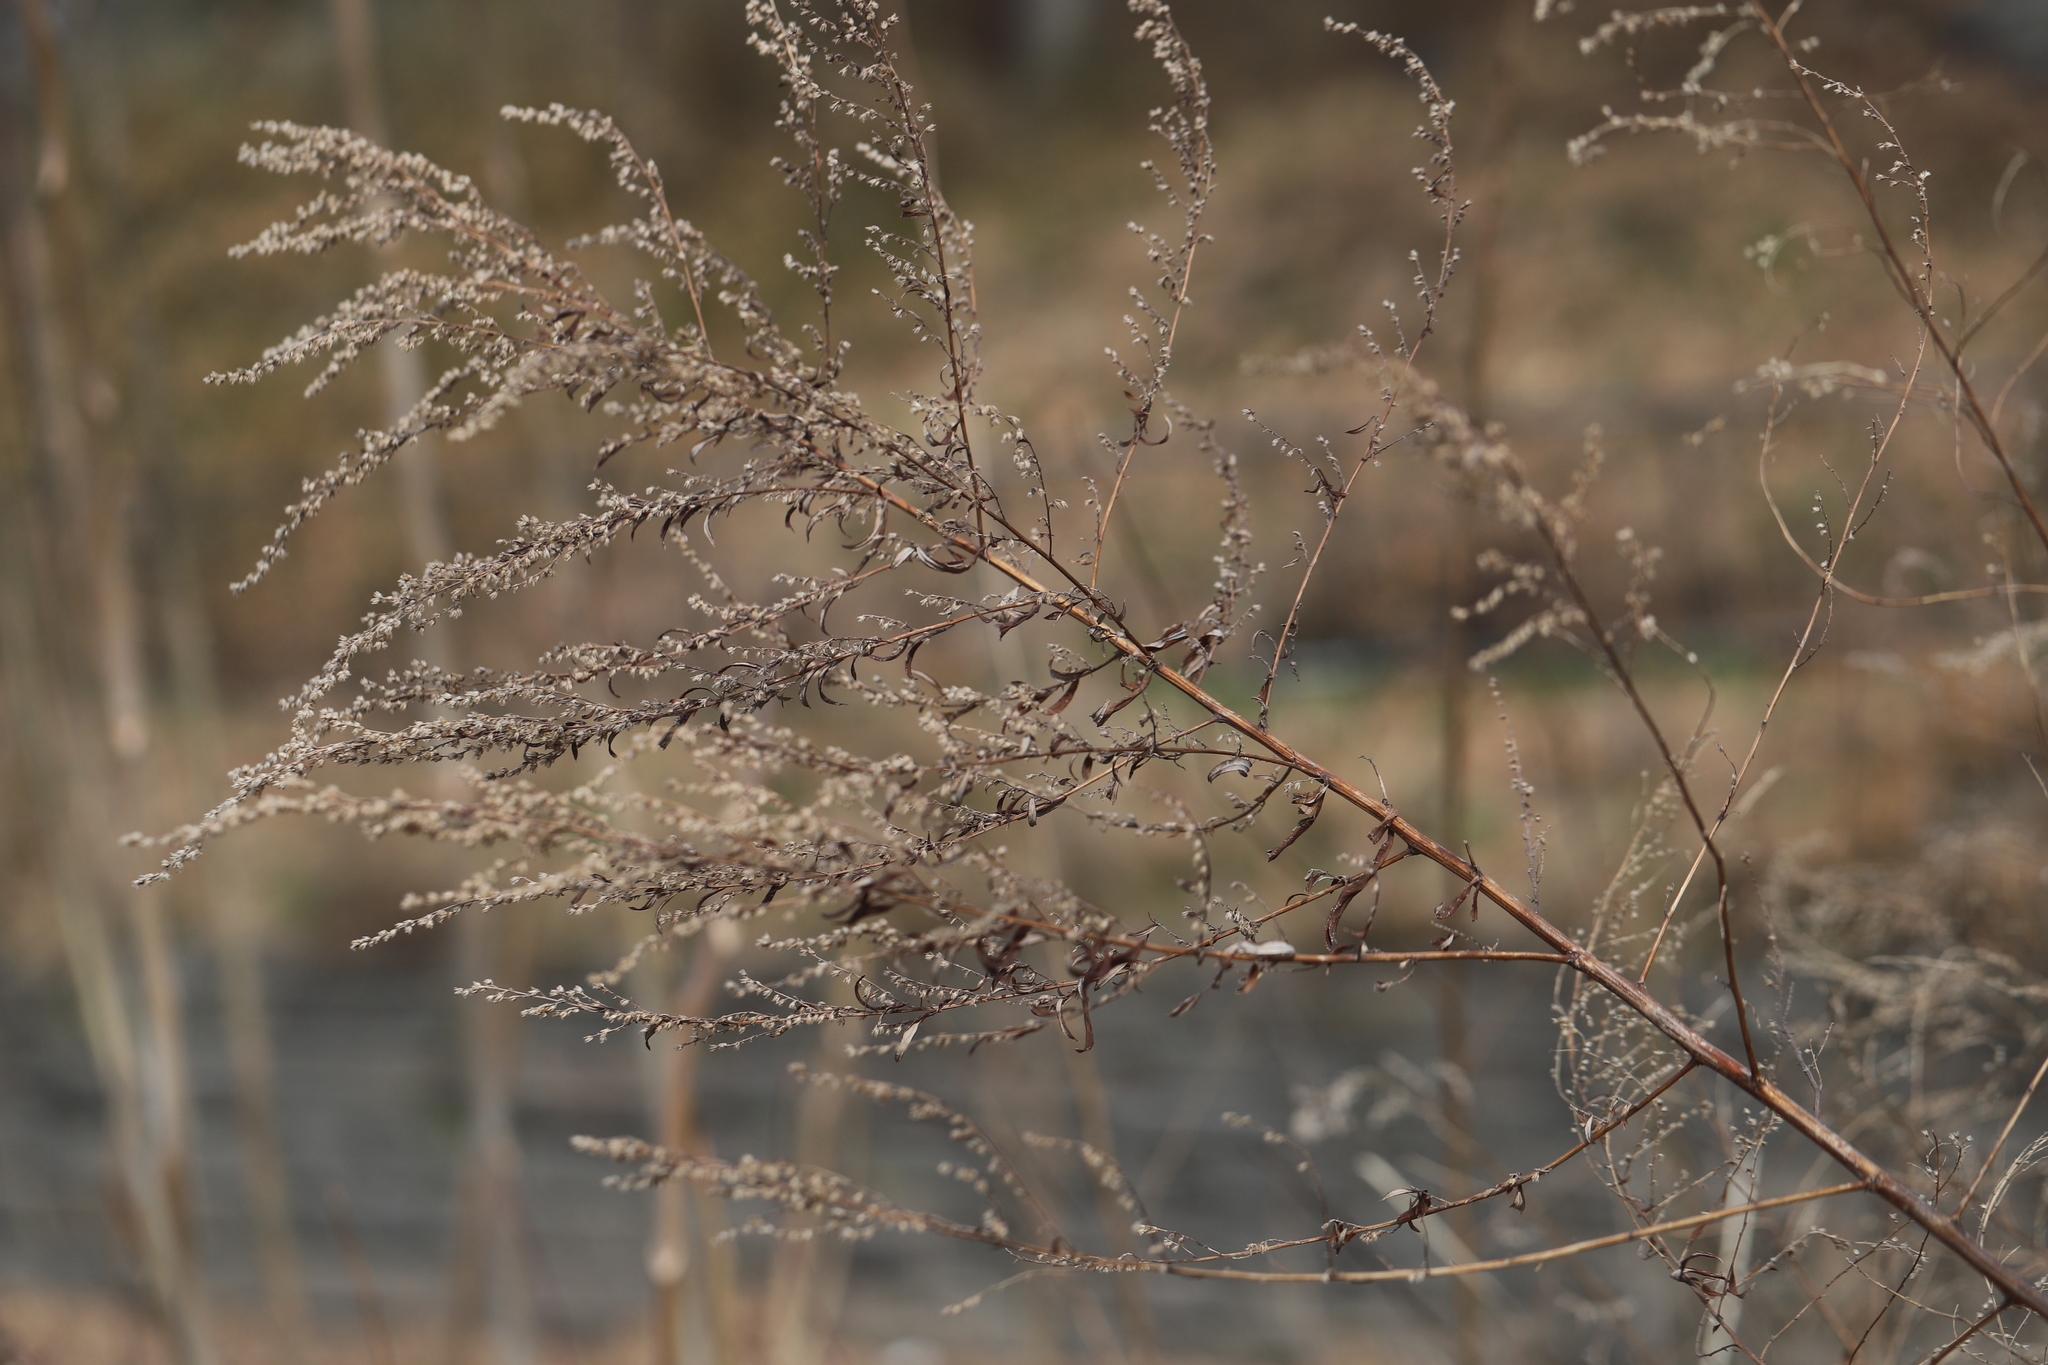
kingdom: Plantae
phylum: Tracheophyta
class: Magnoliopsida
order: Asterales
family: Asteraceae
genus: Artemisia
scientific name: Artemisia vulgaris
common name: Mugwort
